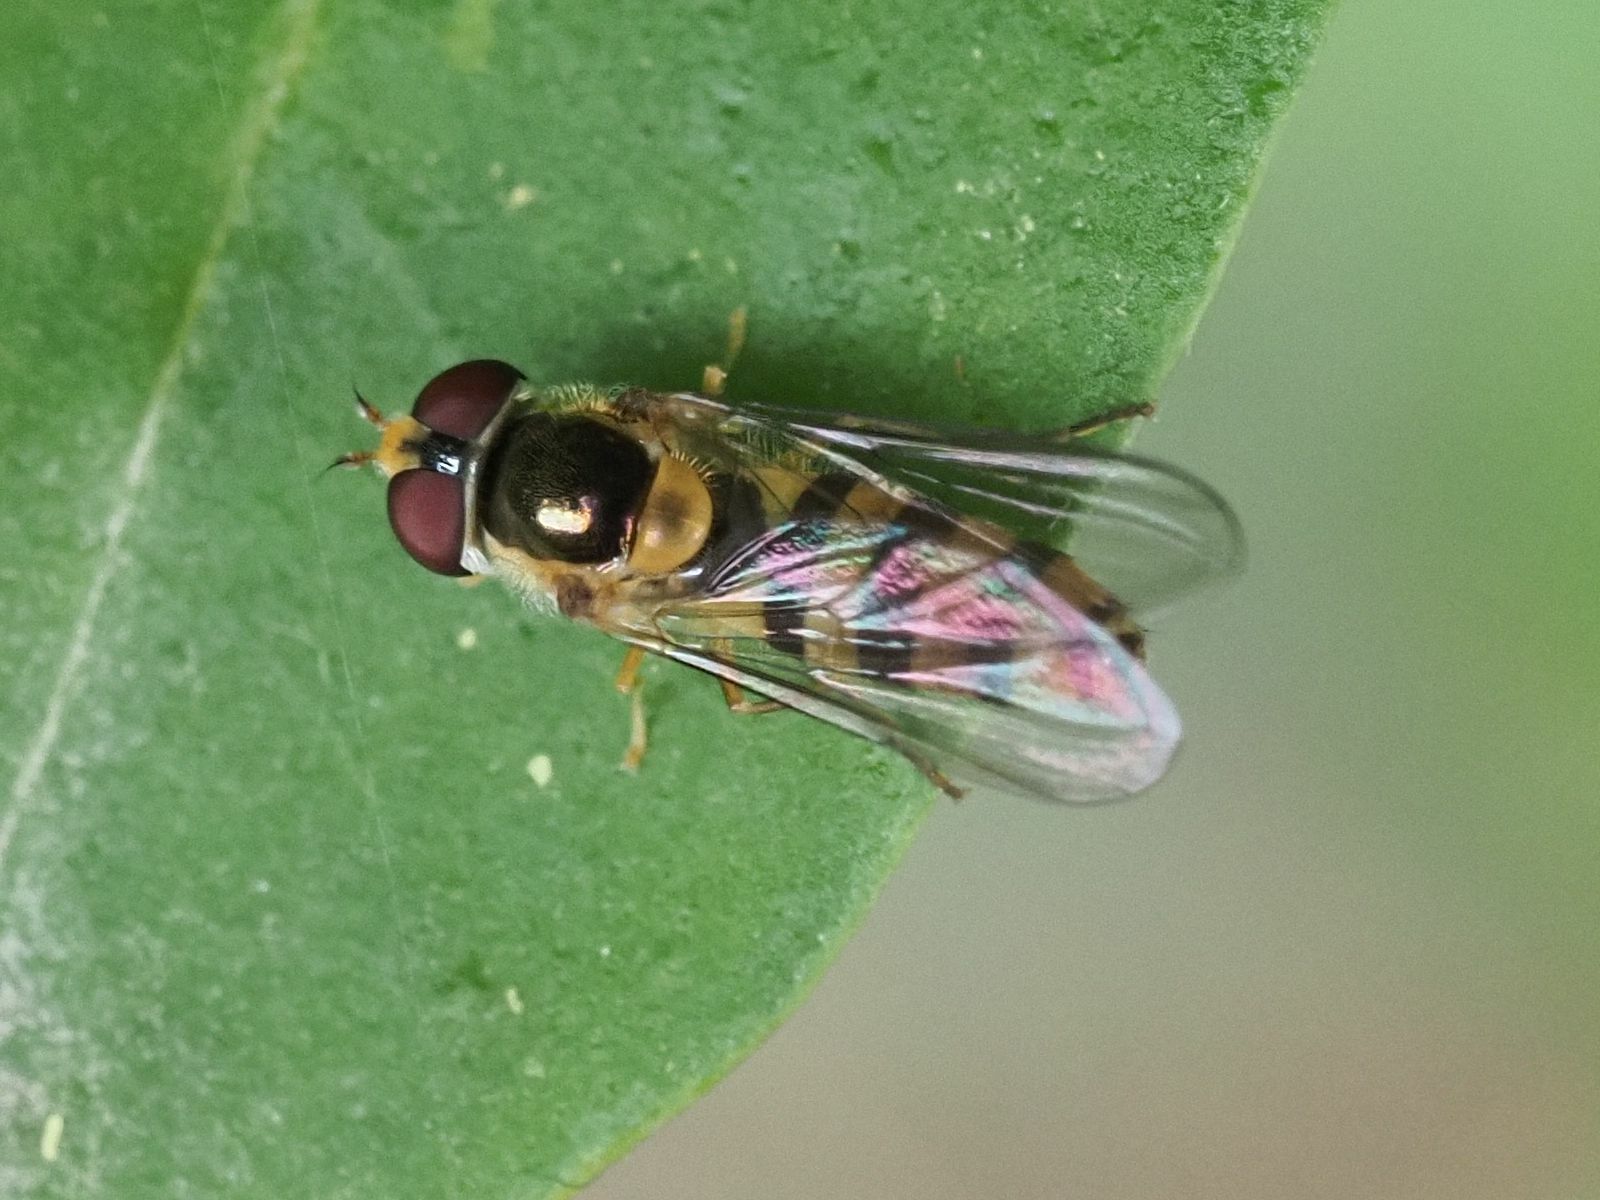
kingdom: Animalia
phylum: Arthropoda
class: Insecta
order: Diptera
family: Syrphidae
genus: Fagisyrphus
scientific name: Fagisyrphus cincta
